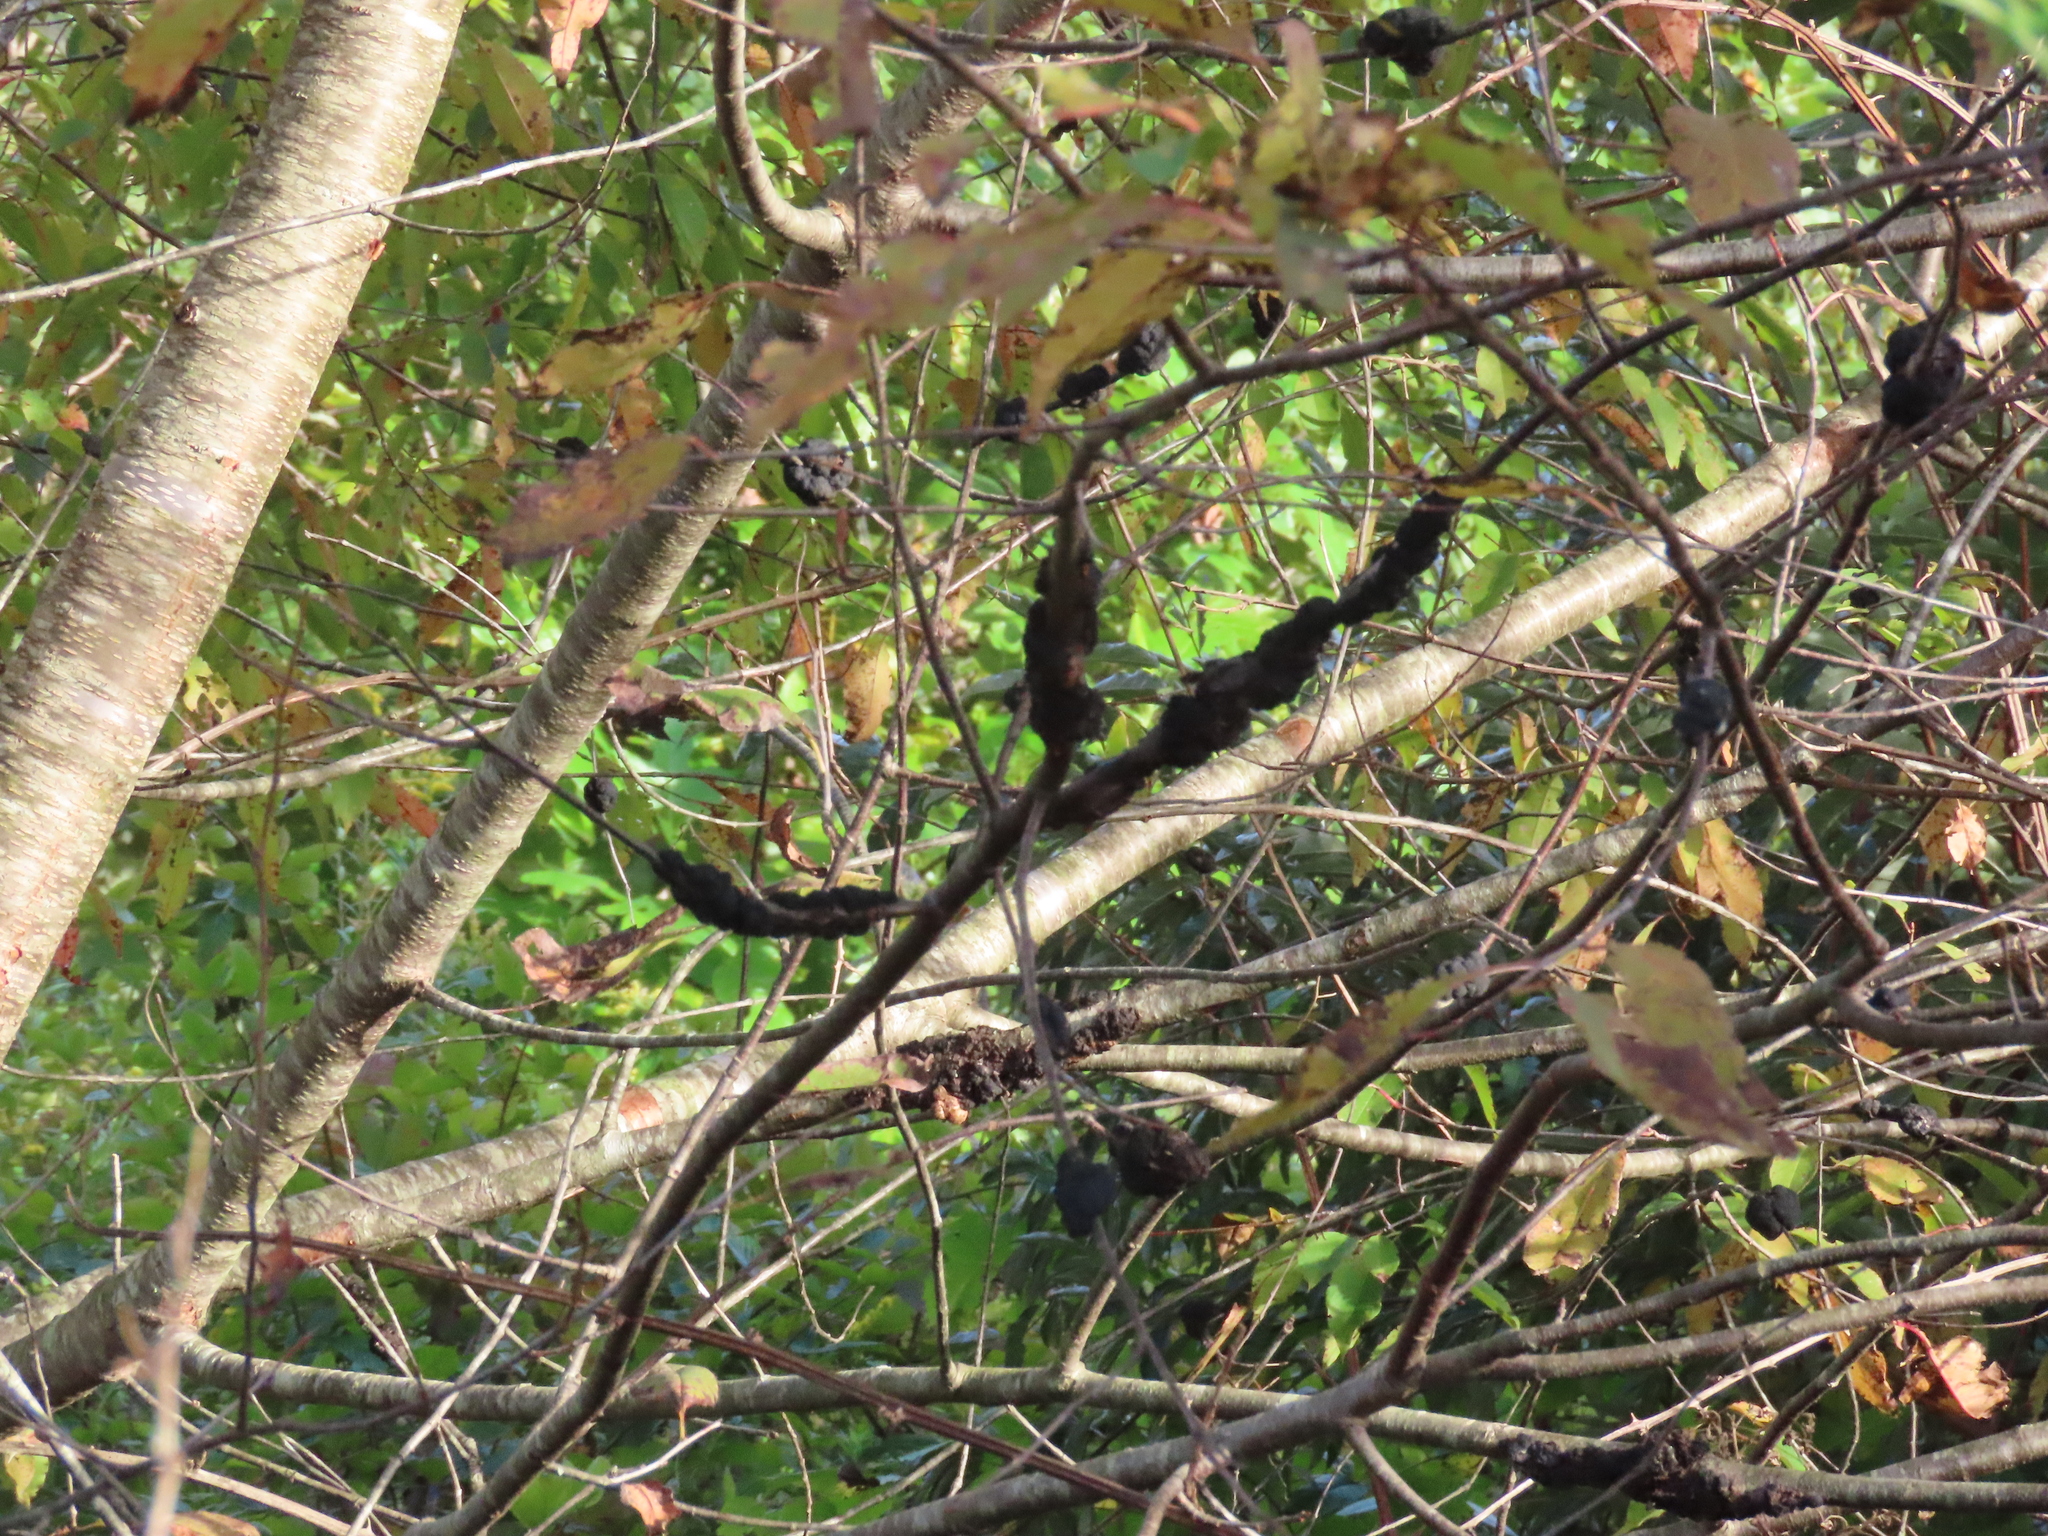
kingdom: Fungi
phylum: Ascomycota
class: Dothideomycetes
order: Venturiales
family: Venturiaceae
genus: Apiosporina
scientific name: Apiosporina morbosa
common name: Black knot
